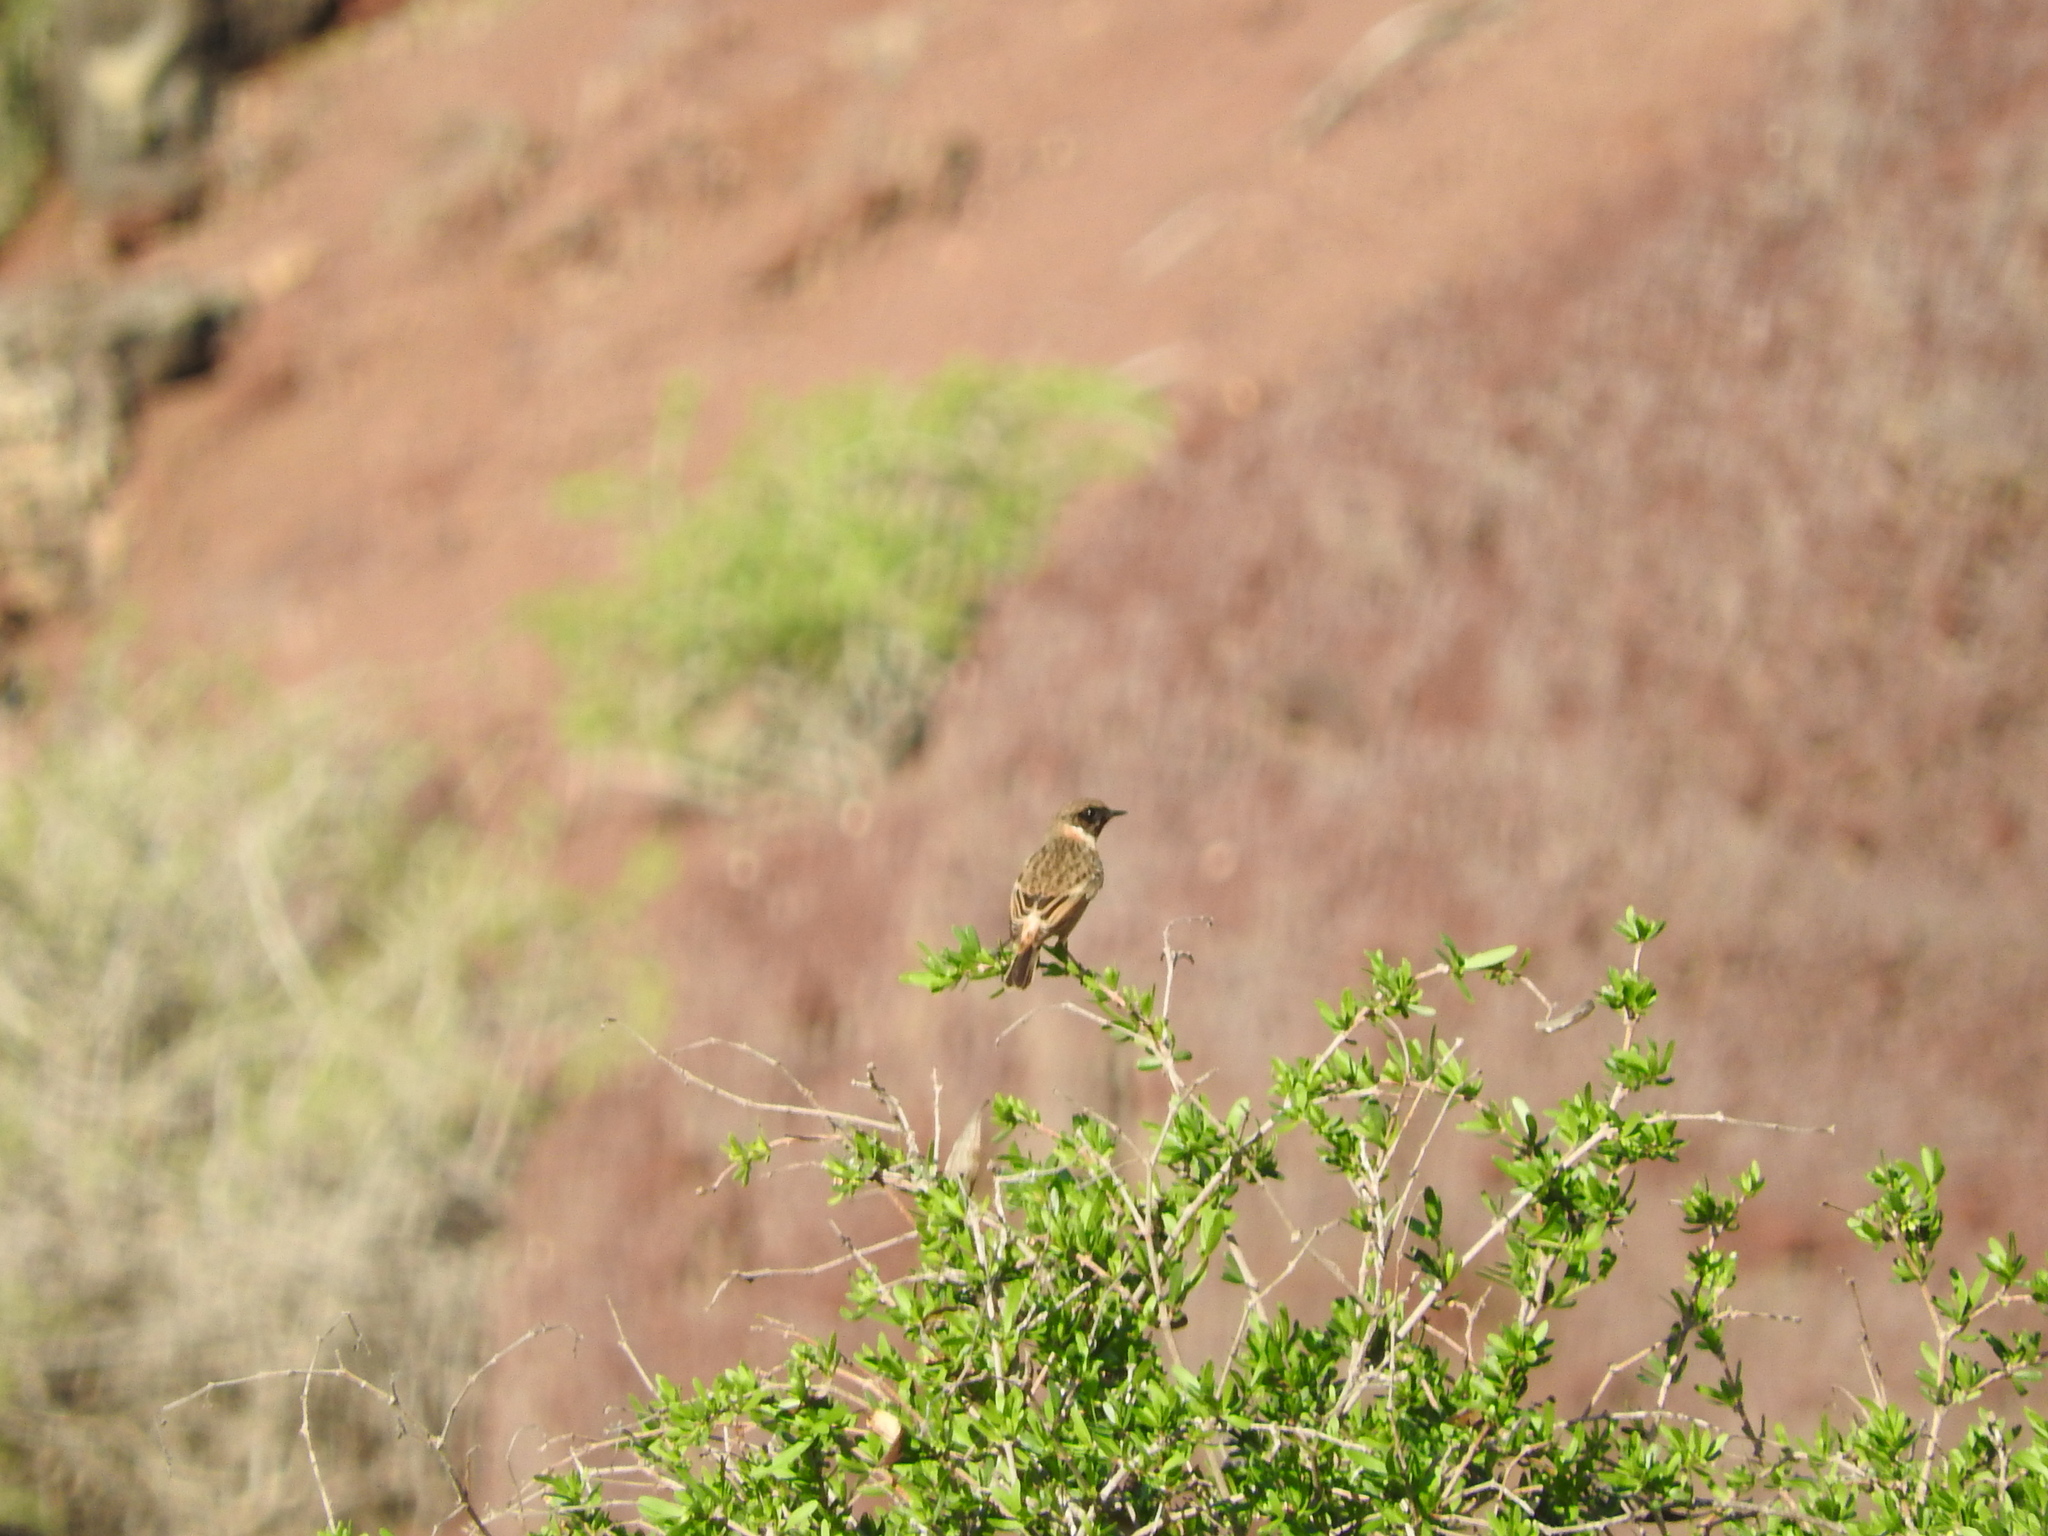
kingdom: Animalia
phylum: Chordata
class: Aves
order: Passeriformes
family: Muscicapidae
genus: Saxicola
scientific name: Saxicola rubicola
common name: European stonechat
